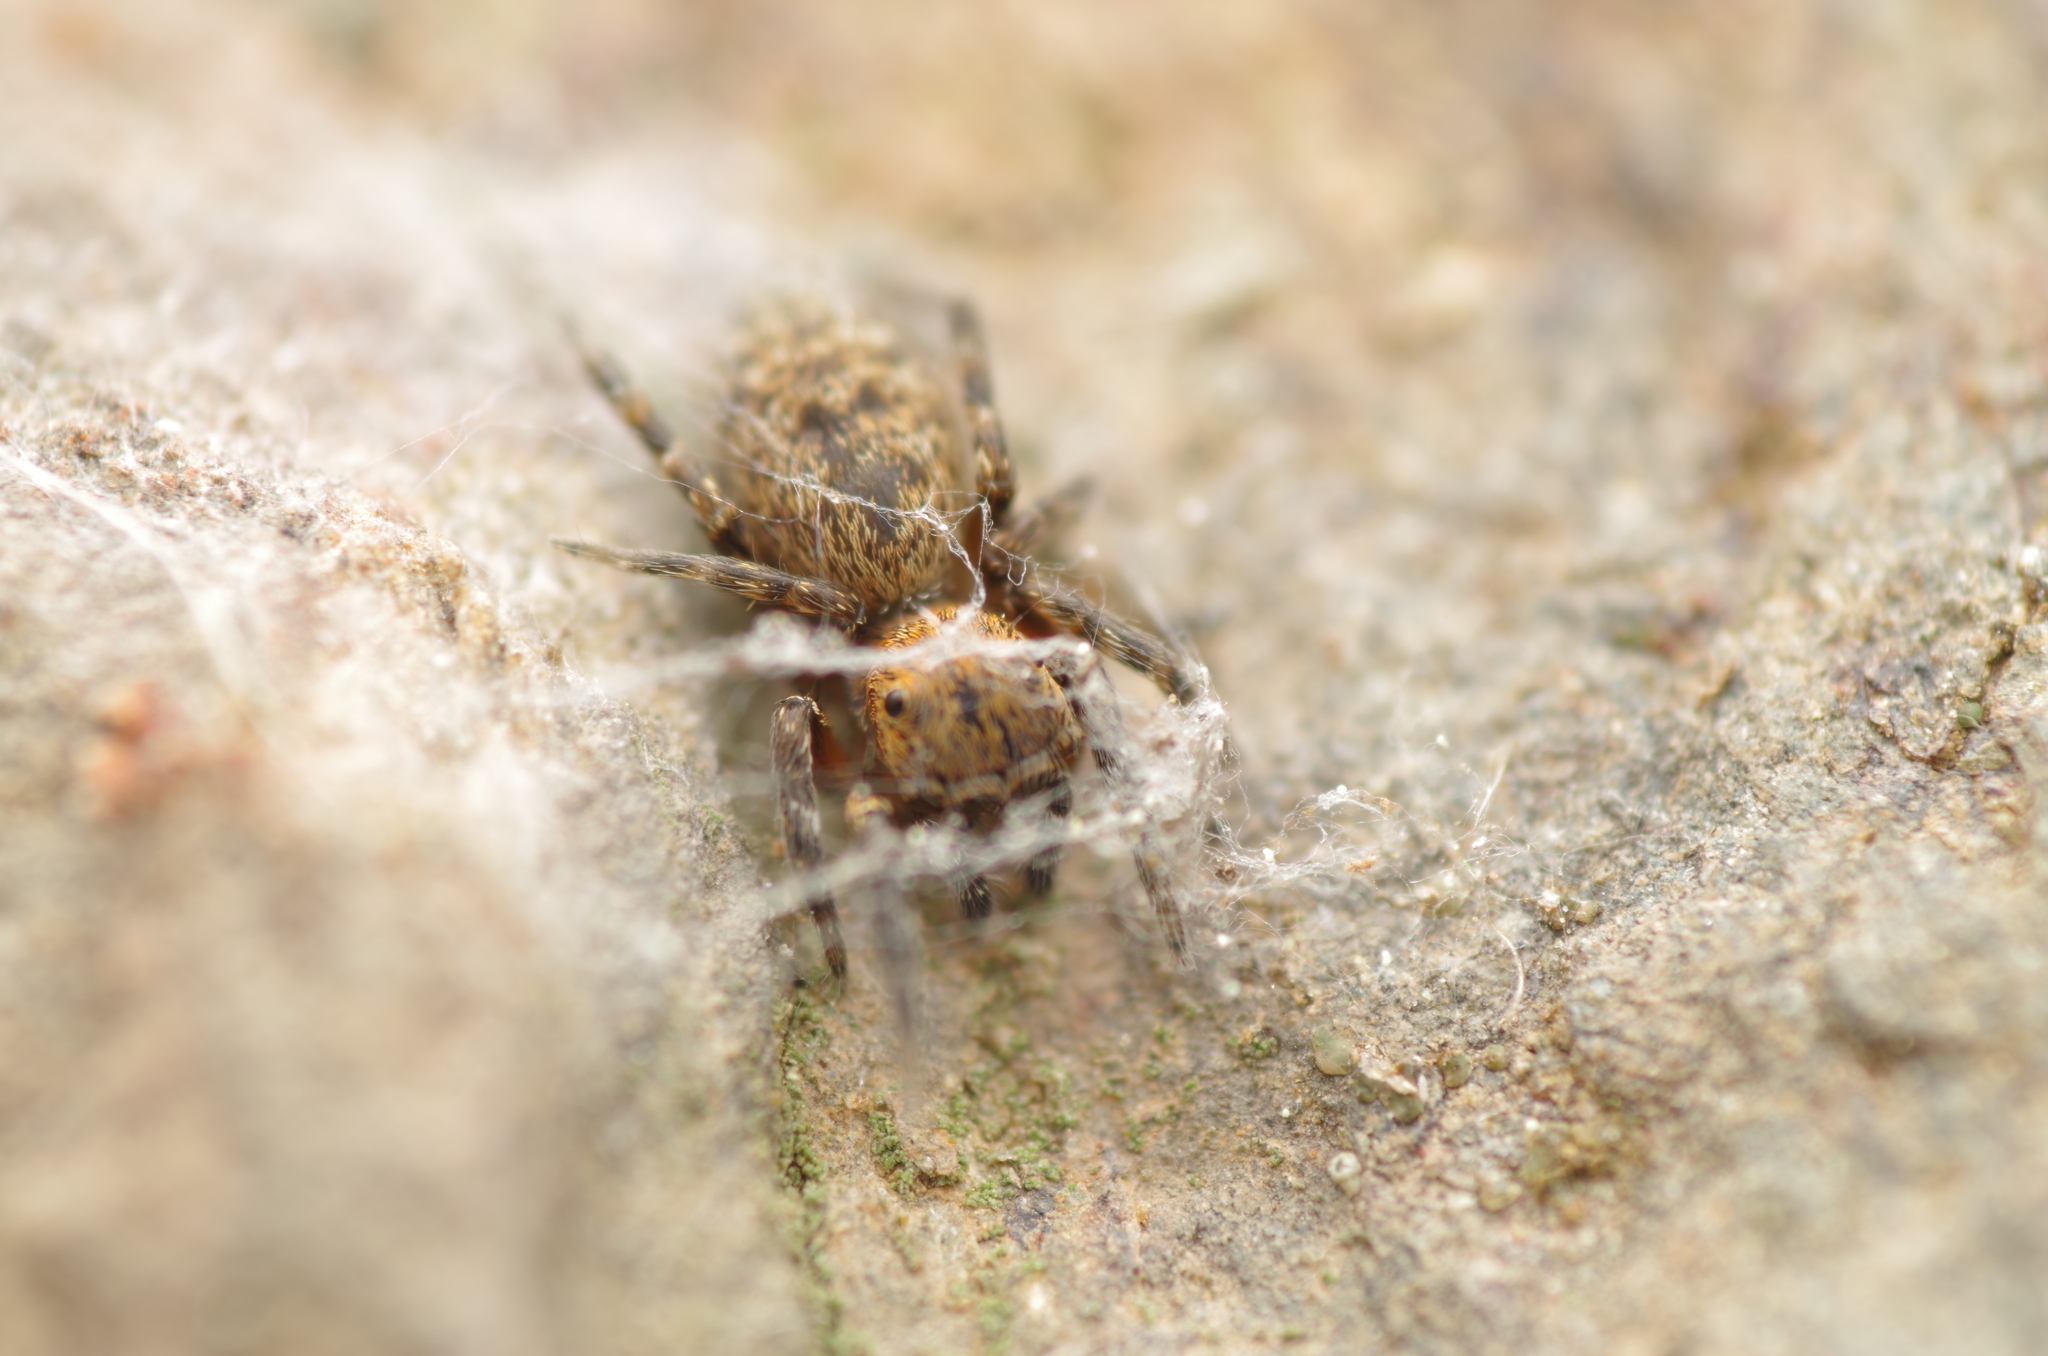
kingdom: Animalia
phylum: Arthropoda
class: Arachnida
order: Araneae
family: Salticidae
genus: Cyrba
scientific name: Cyrba algerina
